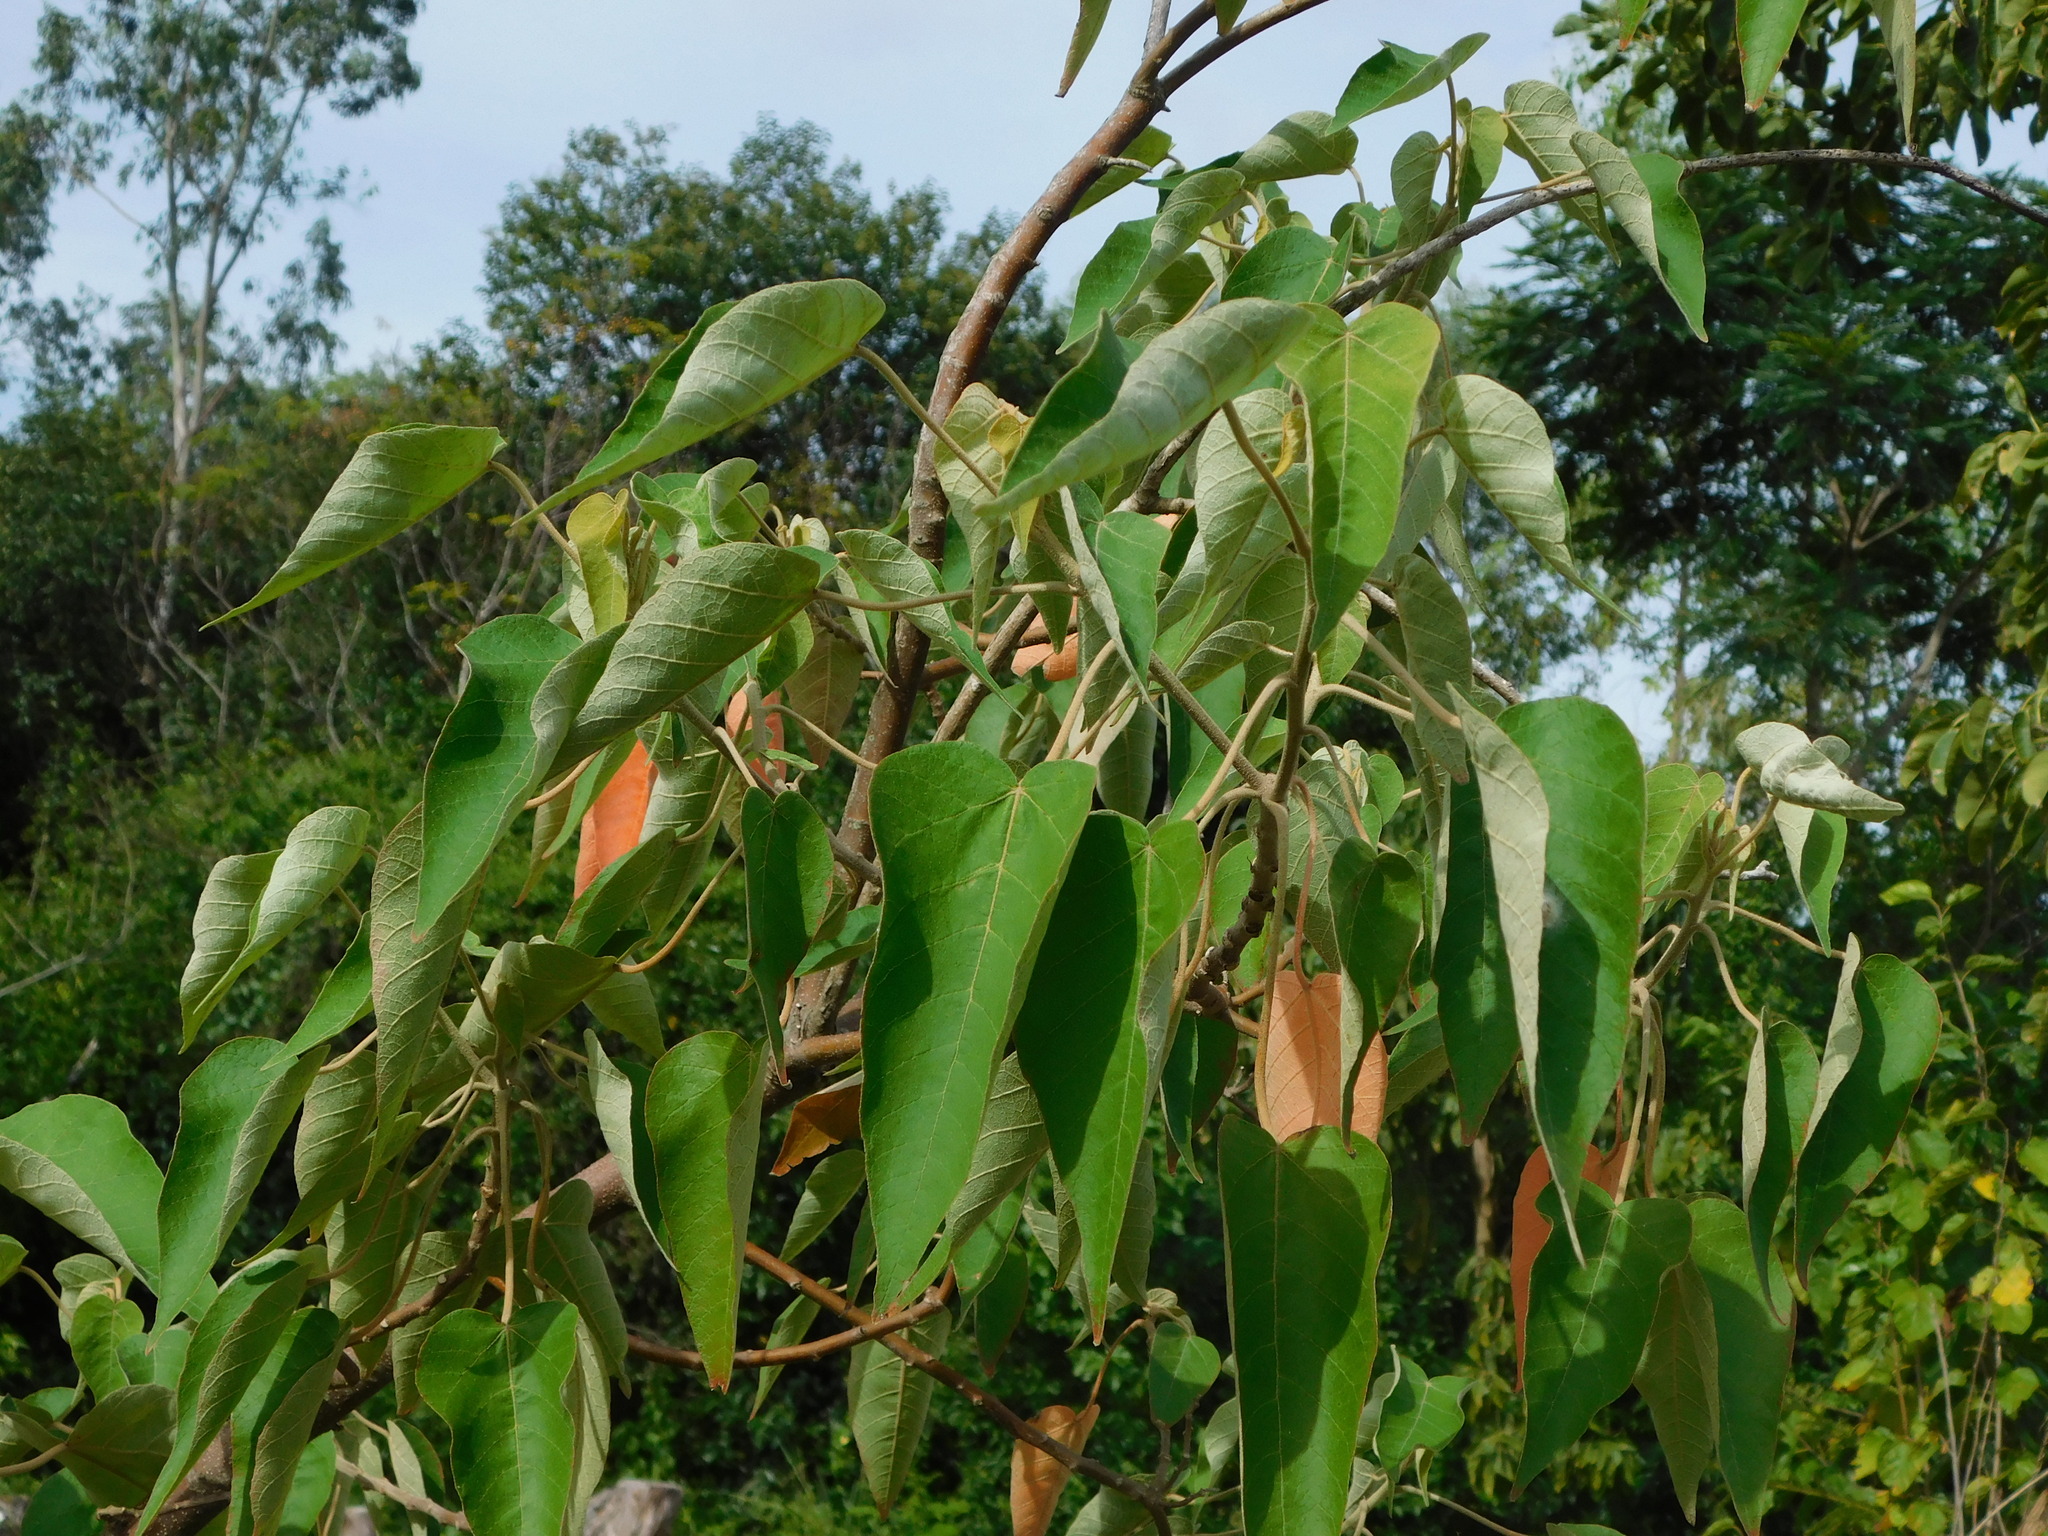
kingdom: Plantae
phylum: Tracheophyta
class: Magnoliopsida
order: Malpighiales
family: Euphorbiaceae
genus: Croton
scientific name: Croton urucurana
